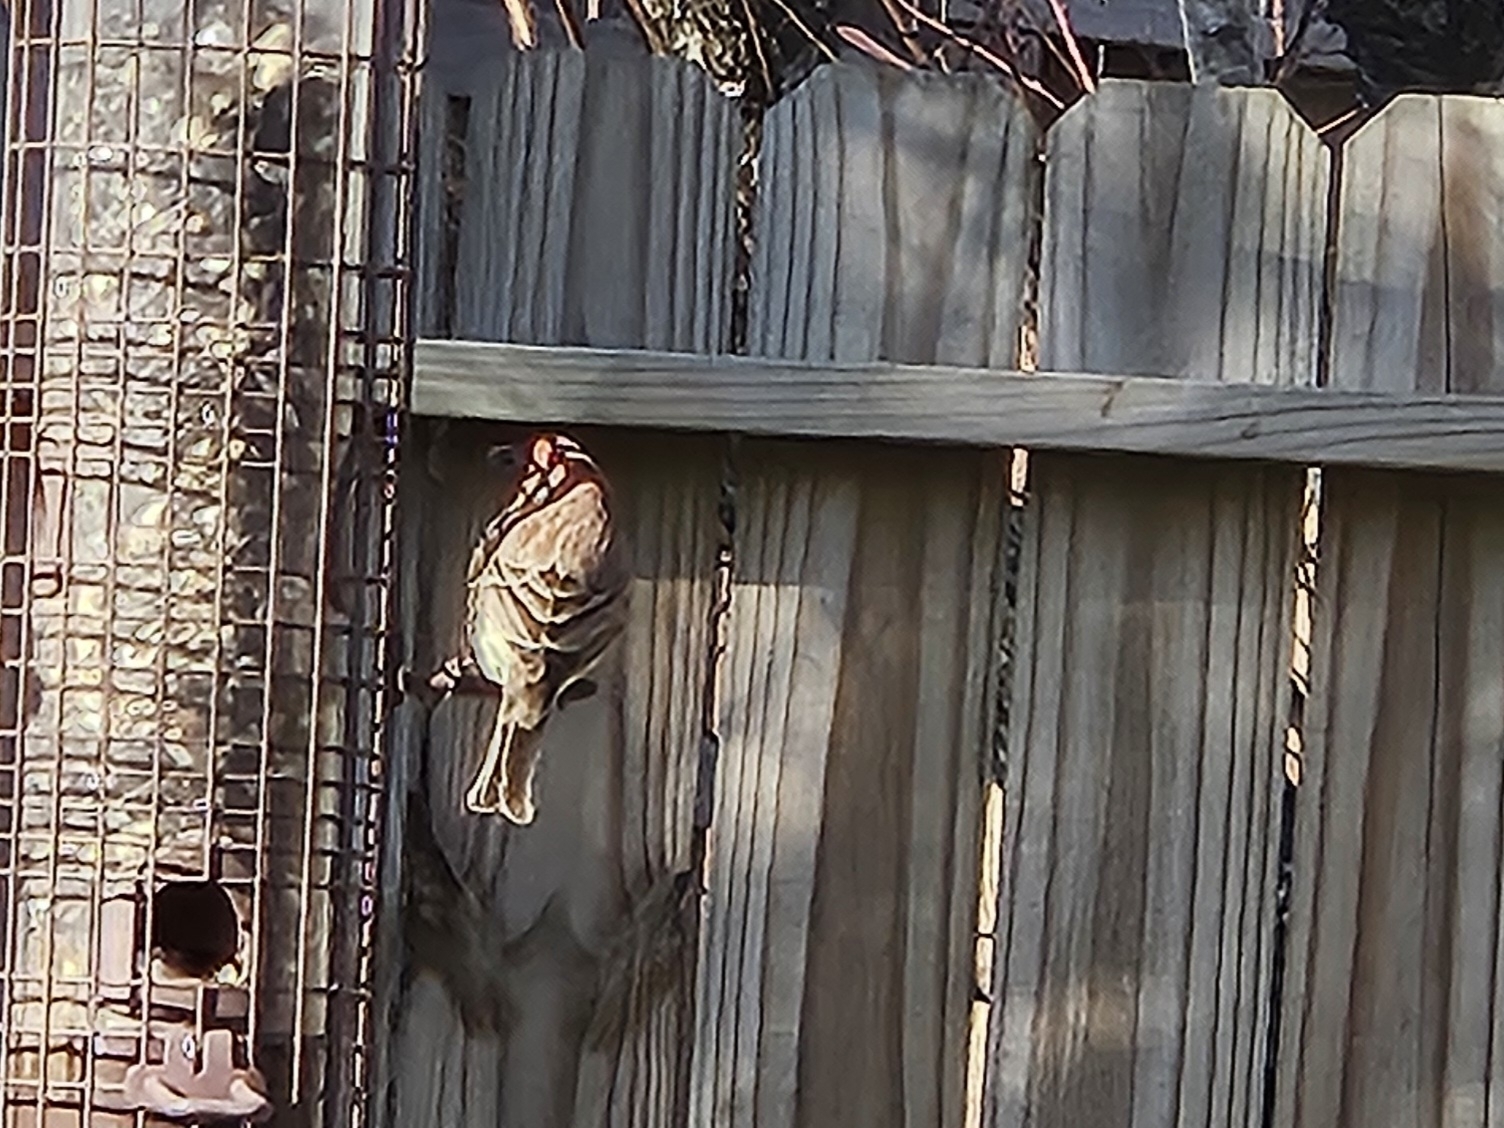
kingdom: Animalia
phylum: Chordata
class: Aves
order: Passeriformes
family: Fringillidae
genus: Haemorhous
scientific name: Haemorhous mexicanus
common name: House finch
